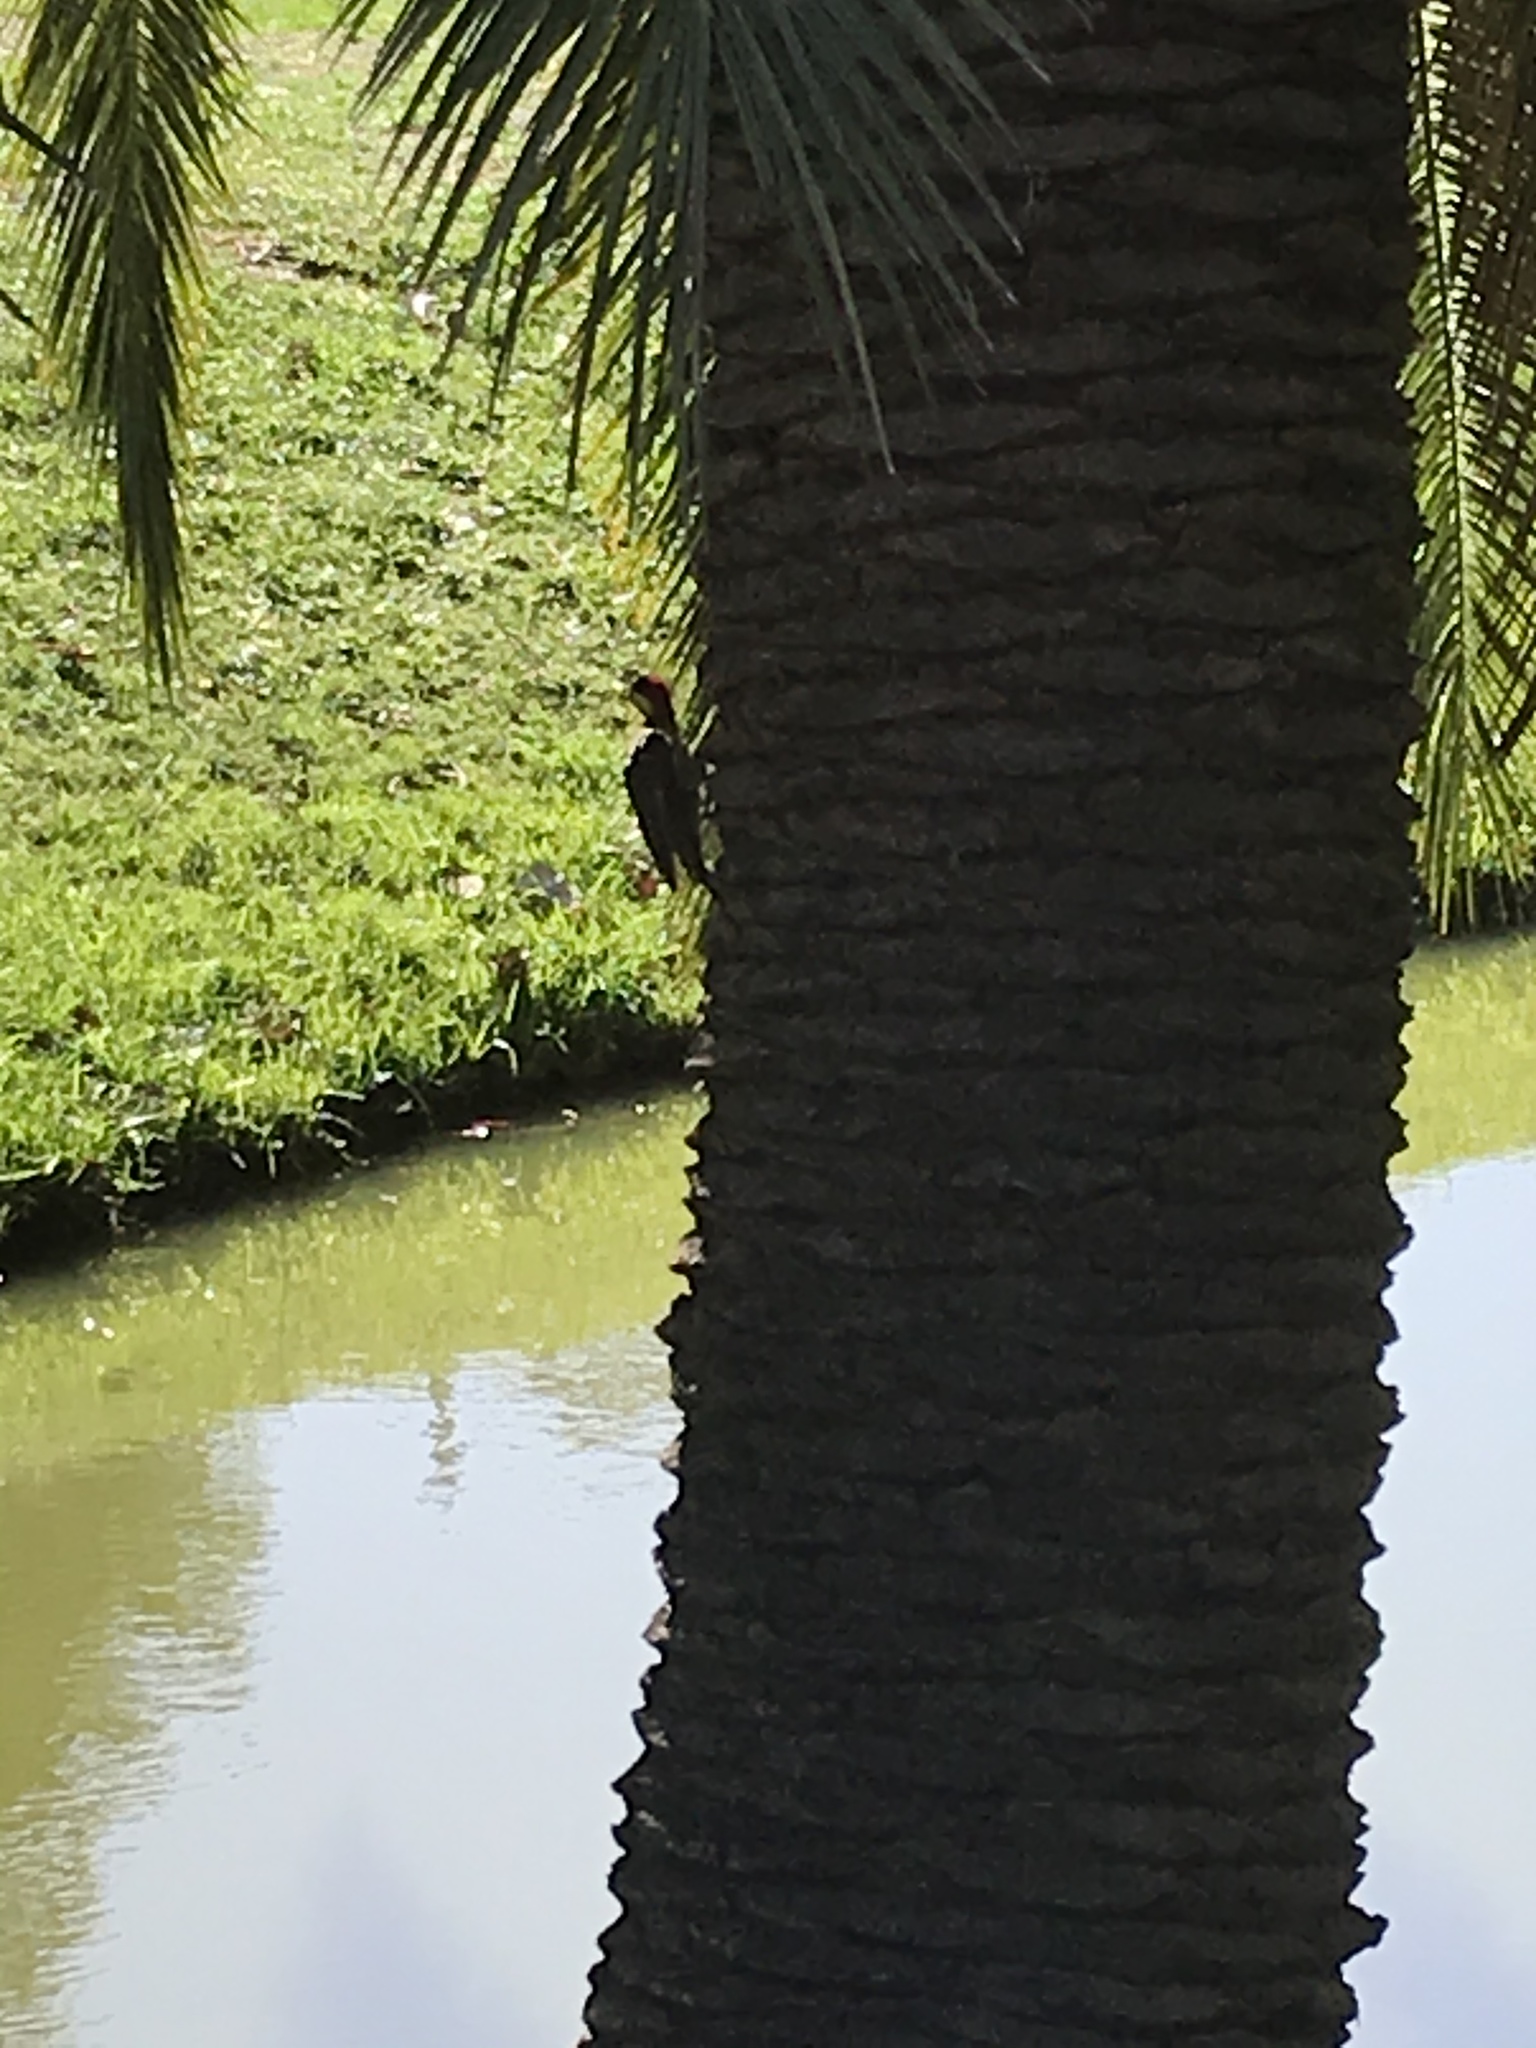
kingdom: Animalia
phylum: Chordata
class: Aves
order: Piciformes
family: Picidae
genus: Colaptes
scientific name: Colaptes melanochloros
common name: Green-barred woodpecker
